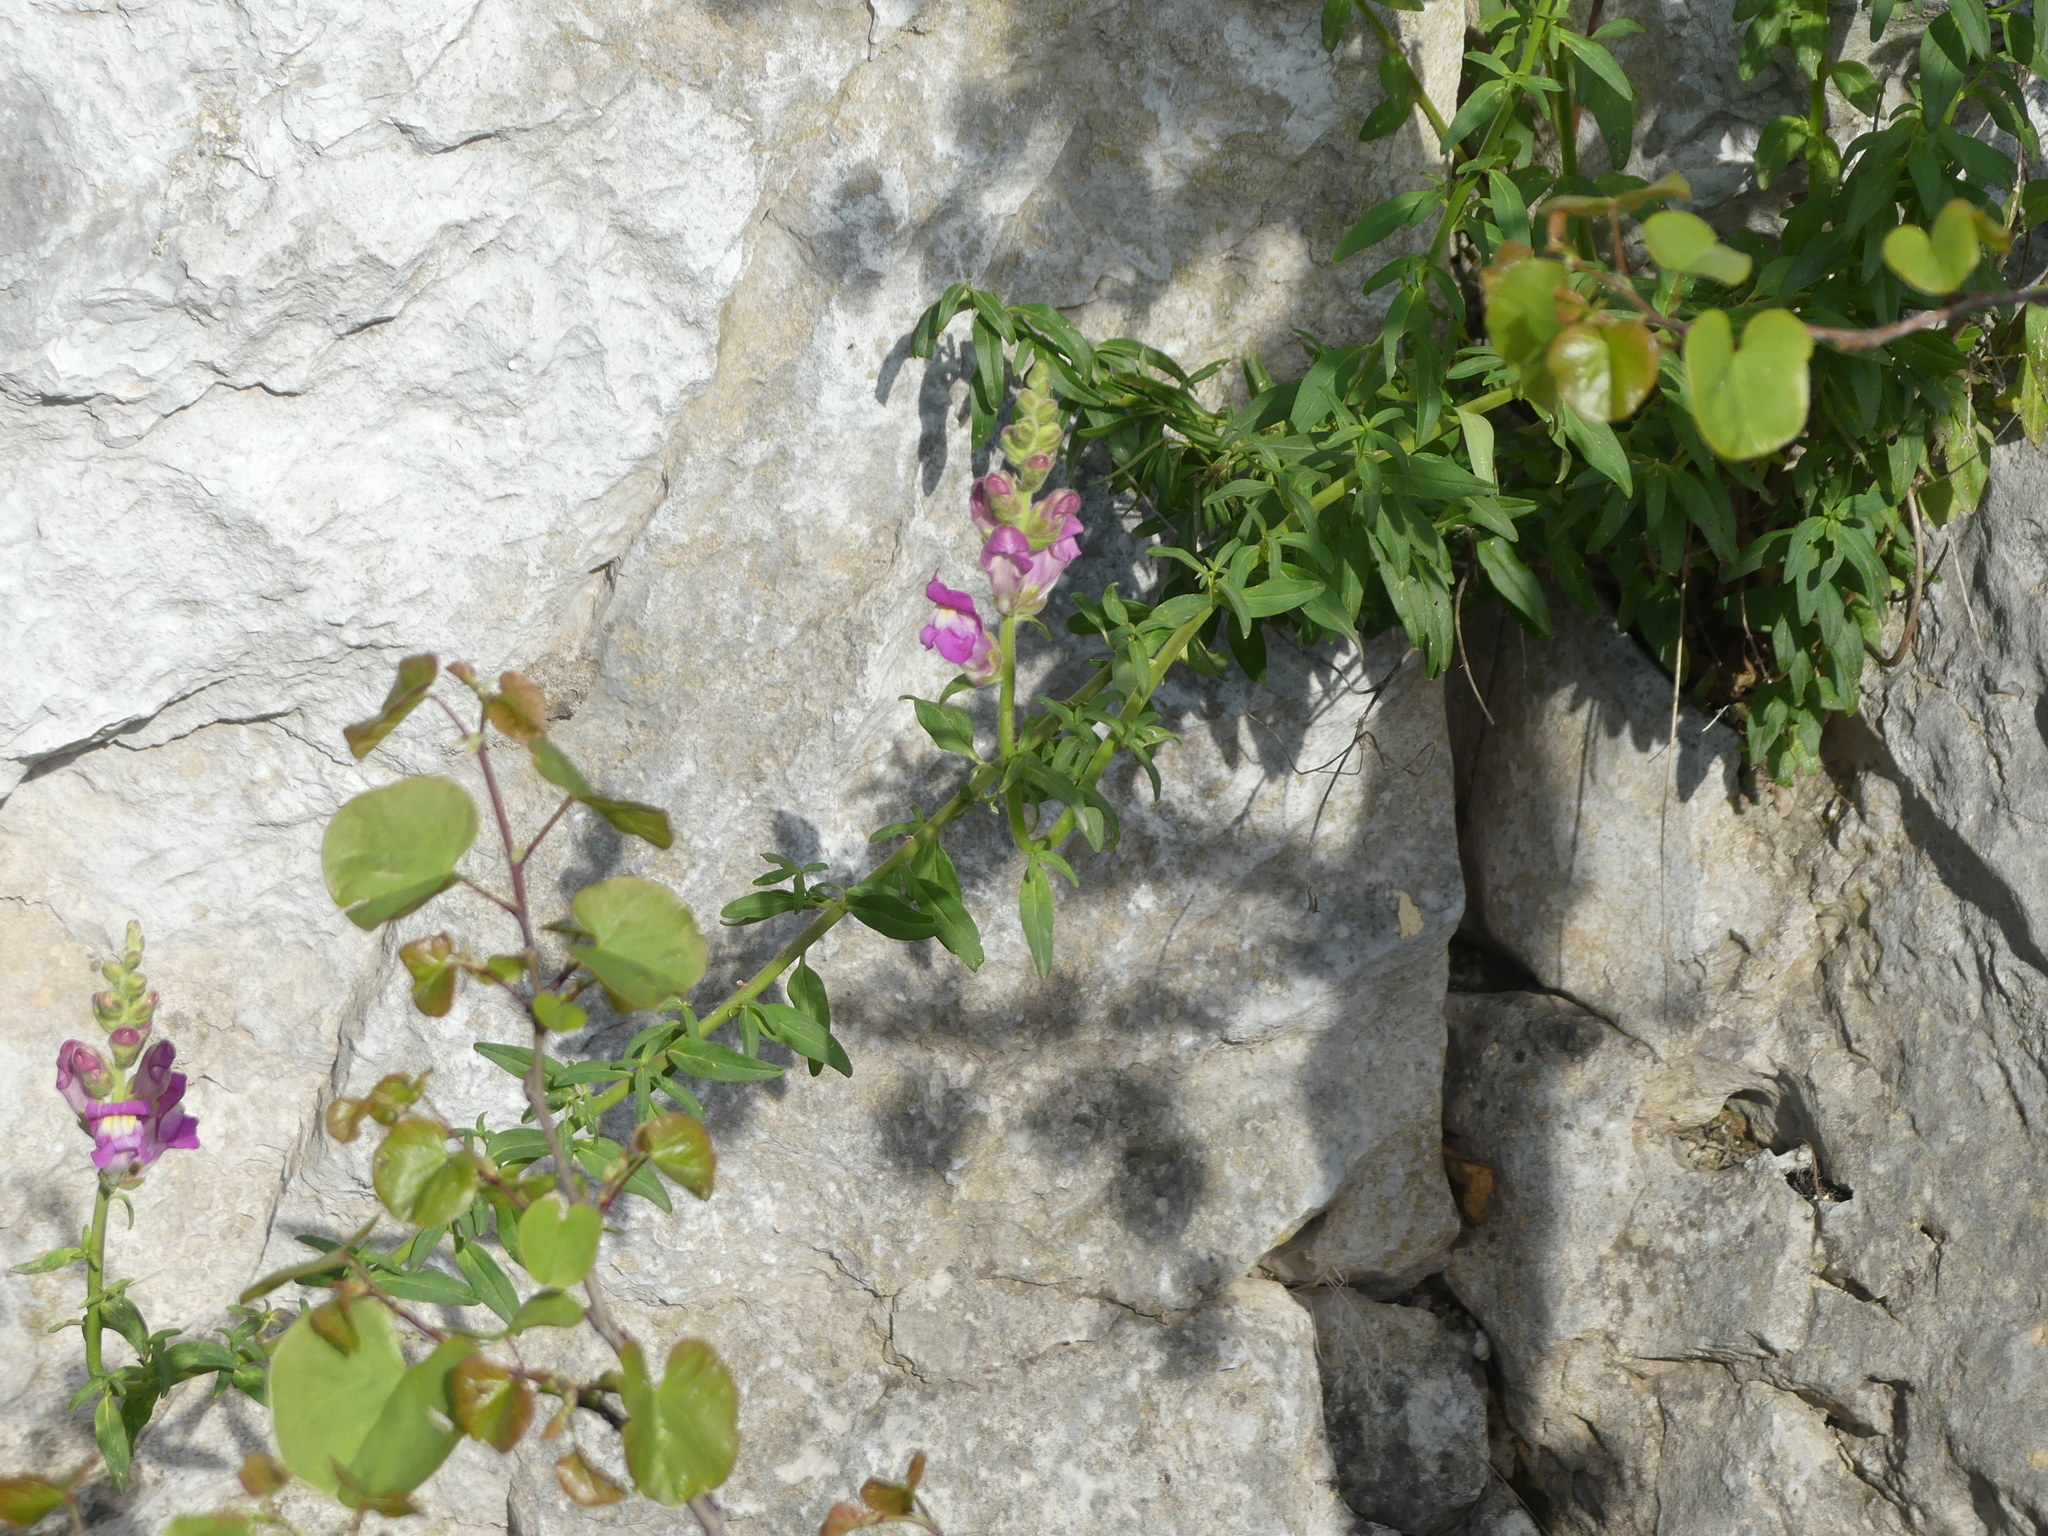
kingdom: Plantae
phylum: Tracheophyta
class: Magnoliopsida
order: Lamiales
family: Plantaginaceae
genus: Antirrhinum
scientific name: Antirrhinum majus
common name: Snapdragon
